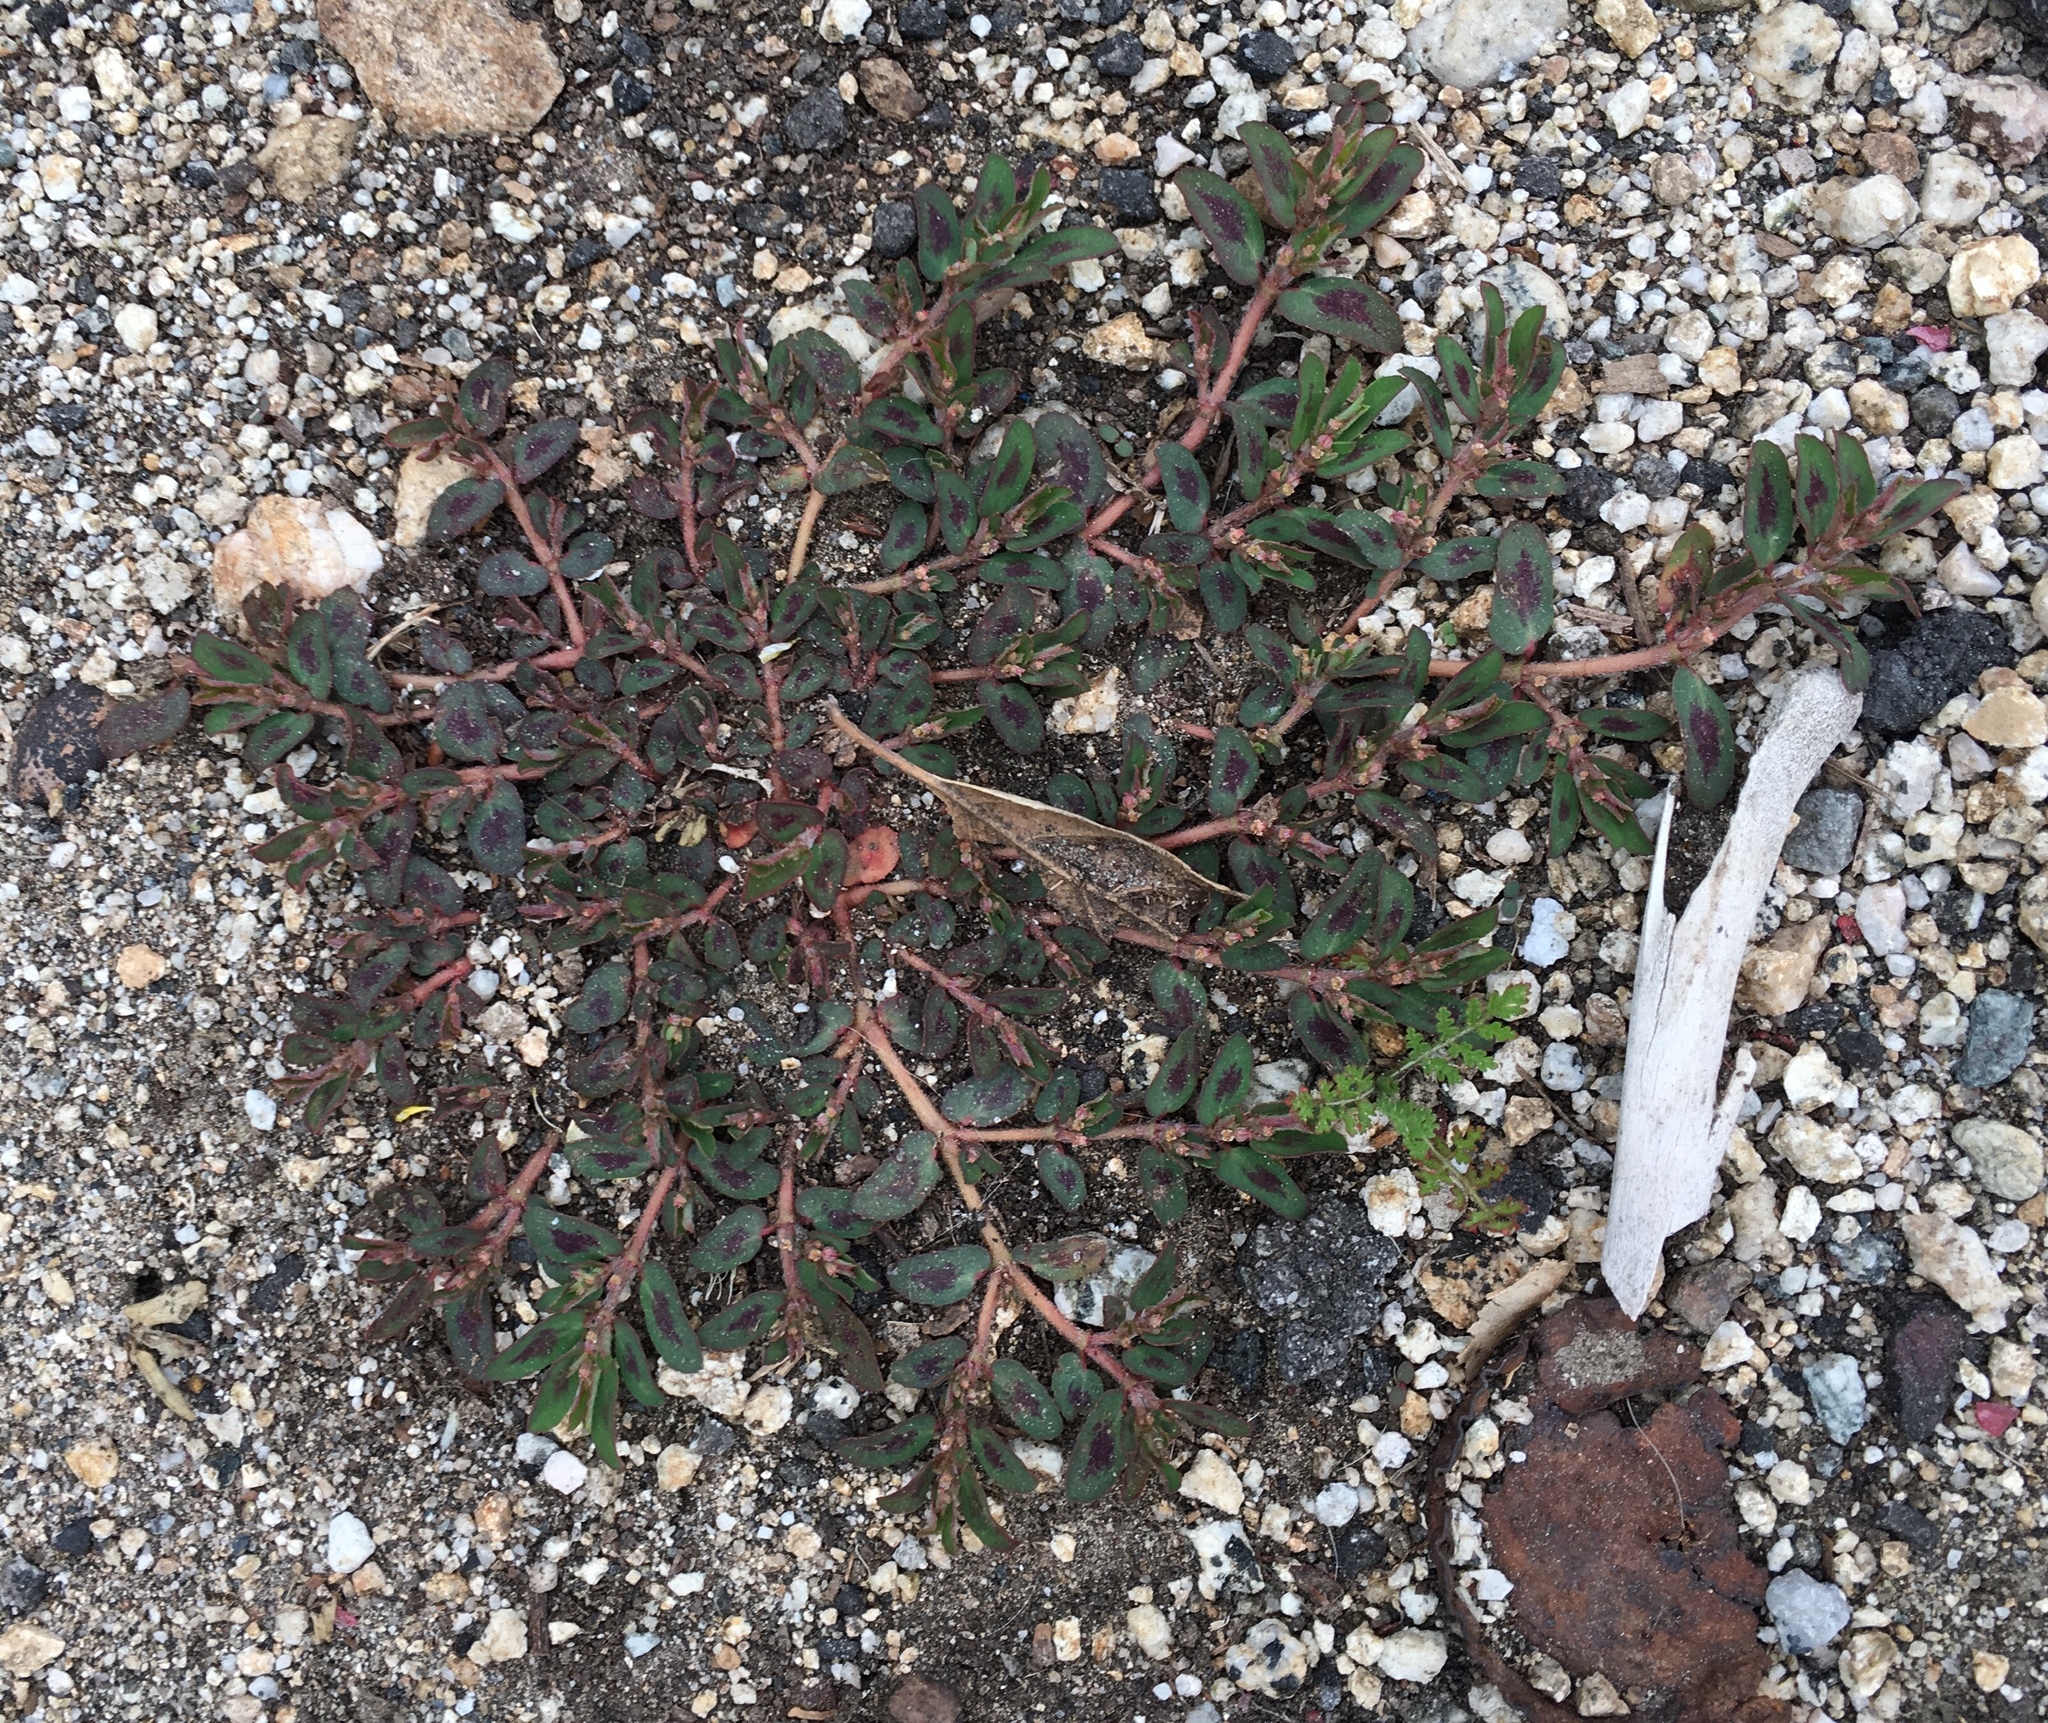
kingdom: Plantae
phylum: Tracheophyta
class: Magnoliopsida
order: Malpighiales
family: Euphorbiaceae
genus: Euphorbia
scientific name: Euphorbia maculata
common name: Spotted spurge
